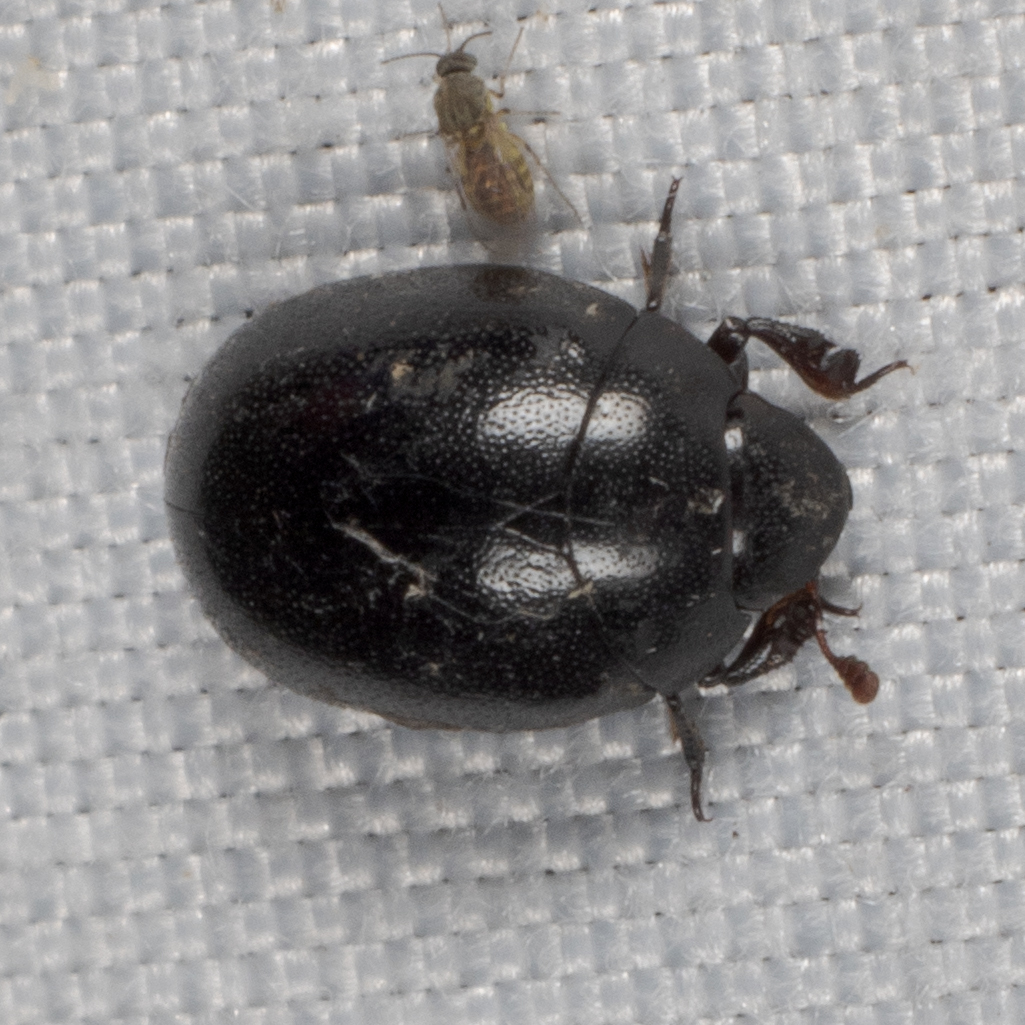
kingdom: Animalia
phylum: Arthropoda
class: Insecta
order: Coleoptera
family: Nosodendridae
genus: Nosodendron
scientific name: Nosodendron unicolor
